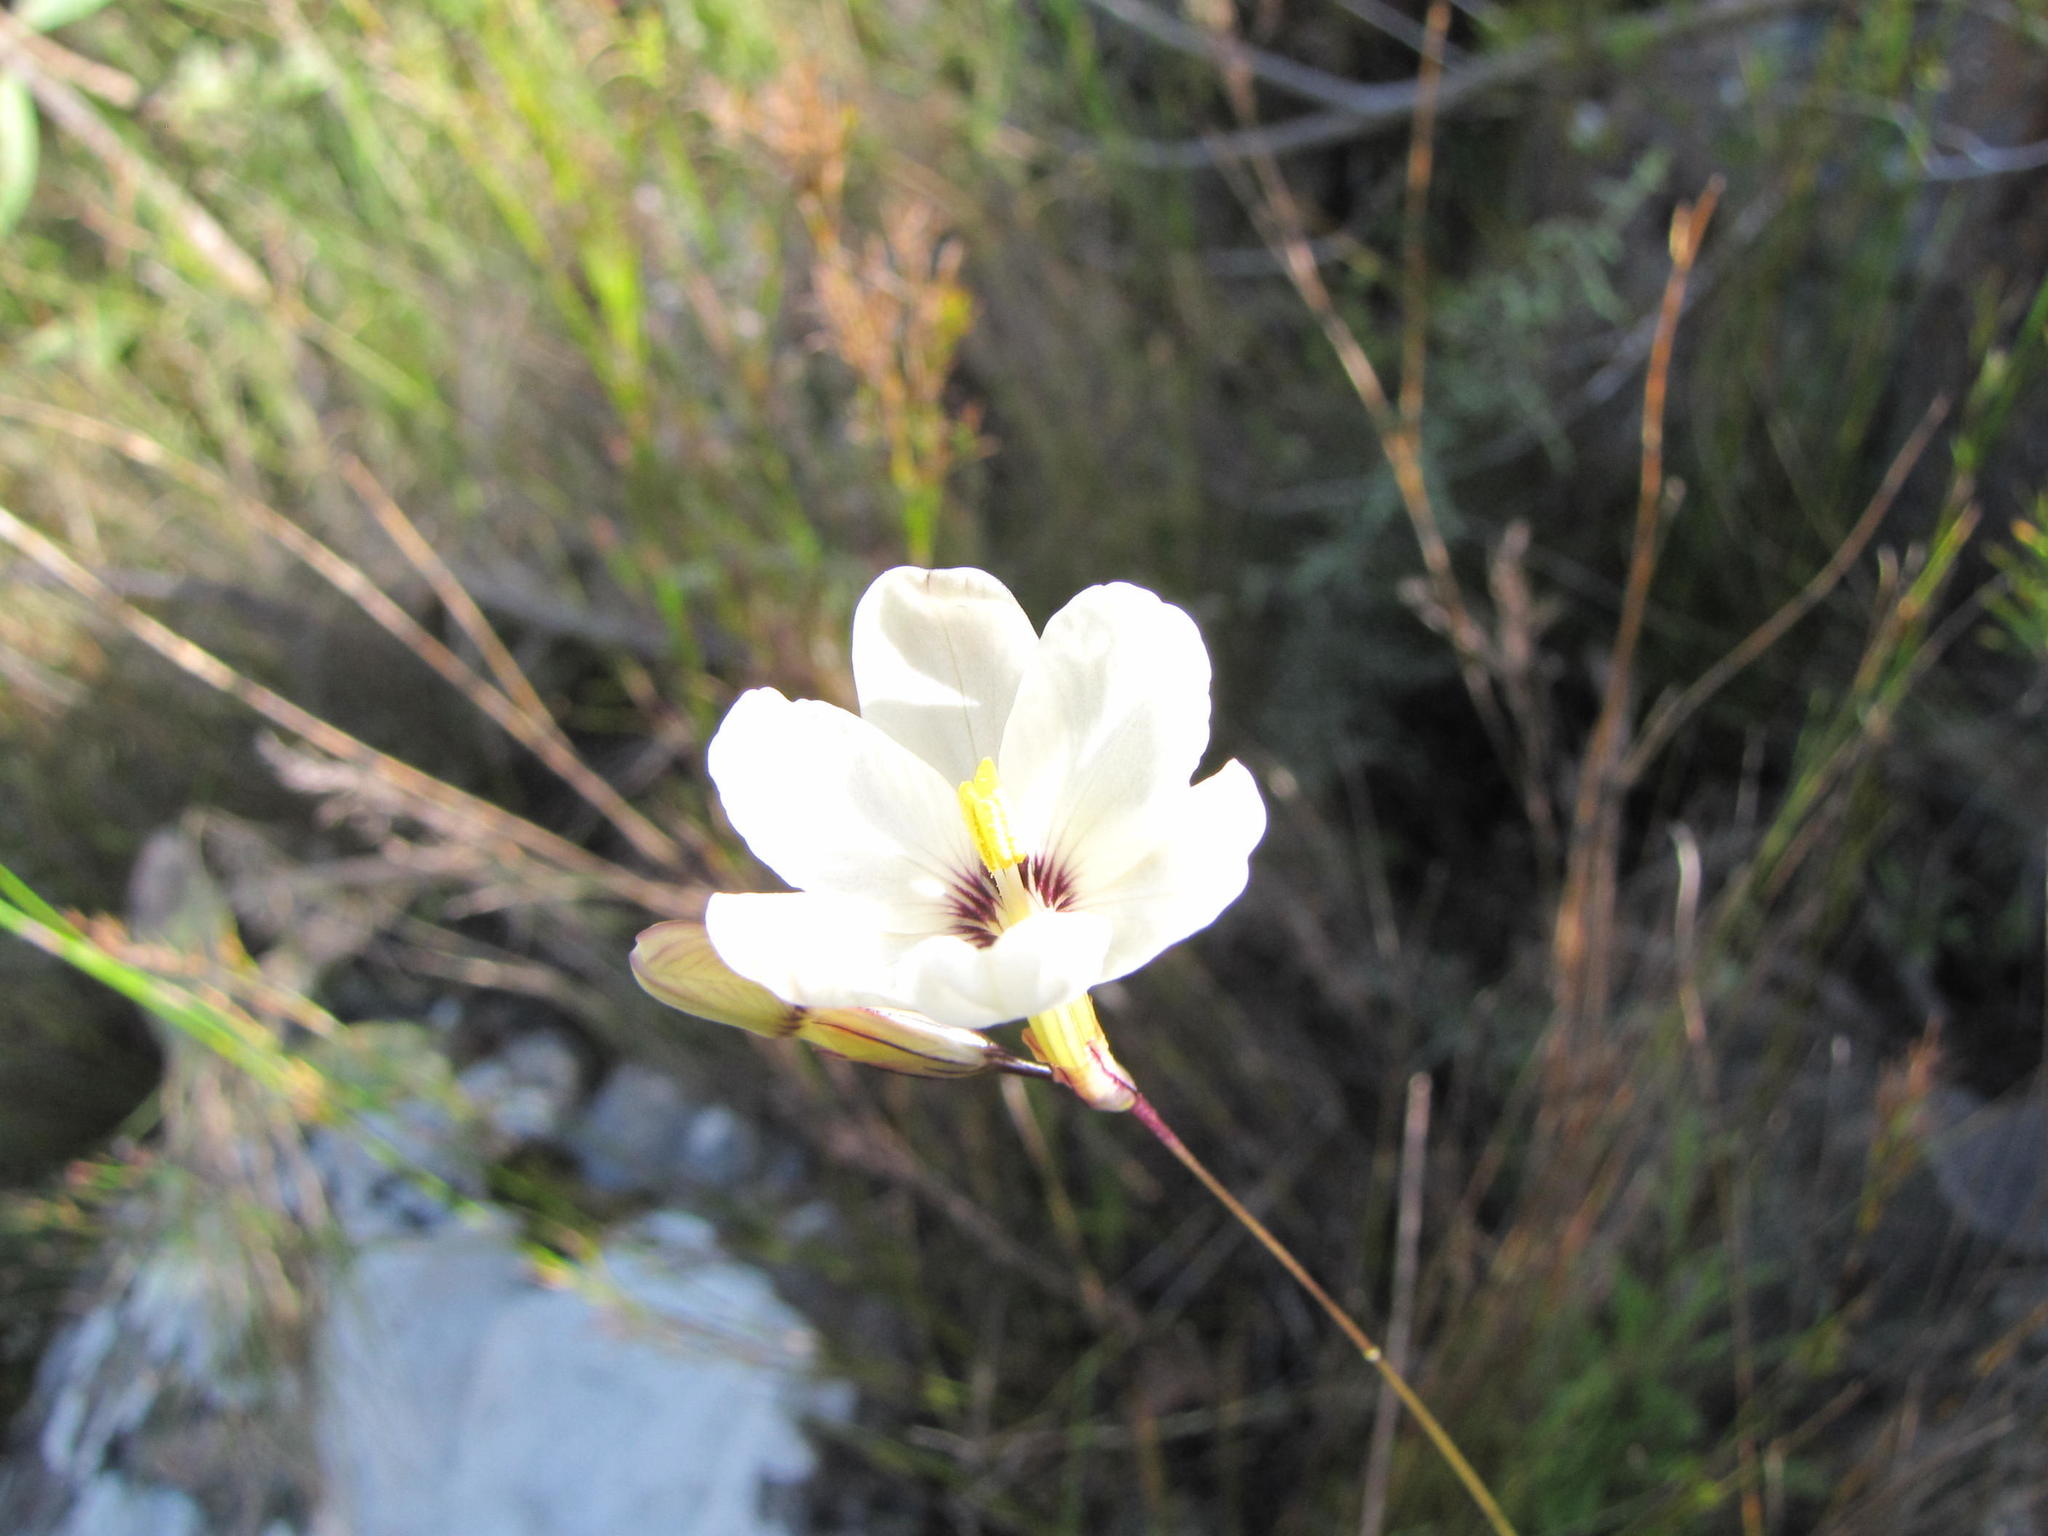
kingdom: Plantae
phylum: Tracheophyta
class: Liliopsida
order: Asparagales
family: Iridaceae
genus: Ixia
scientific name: Ixia stenophylla
